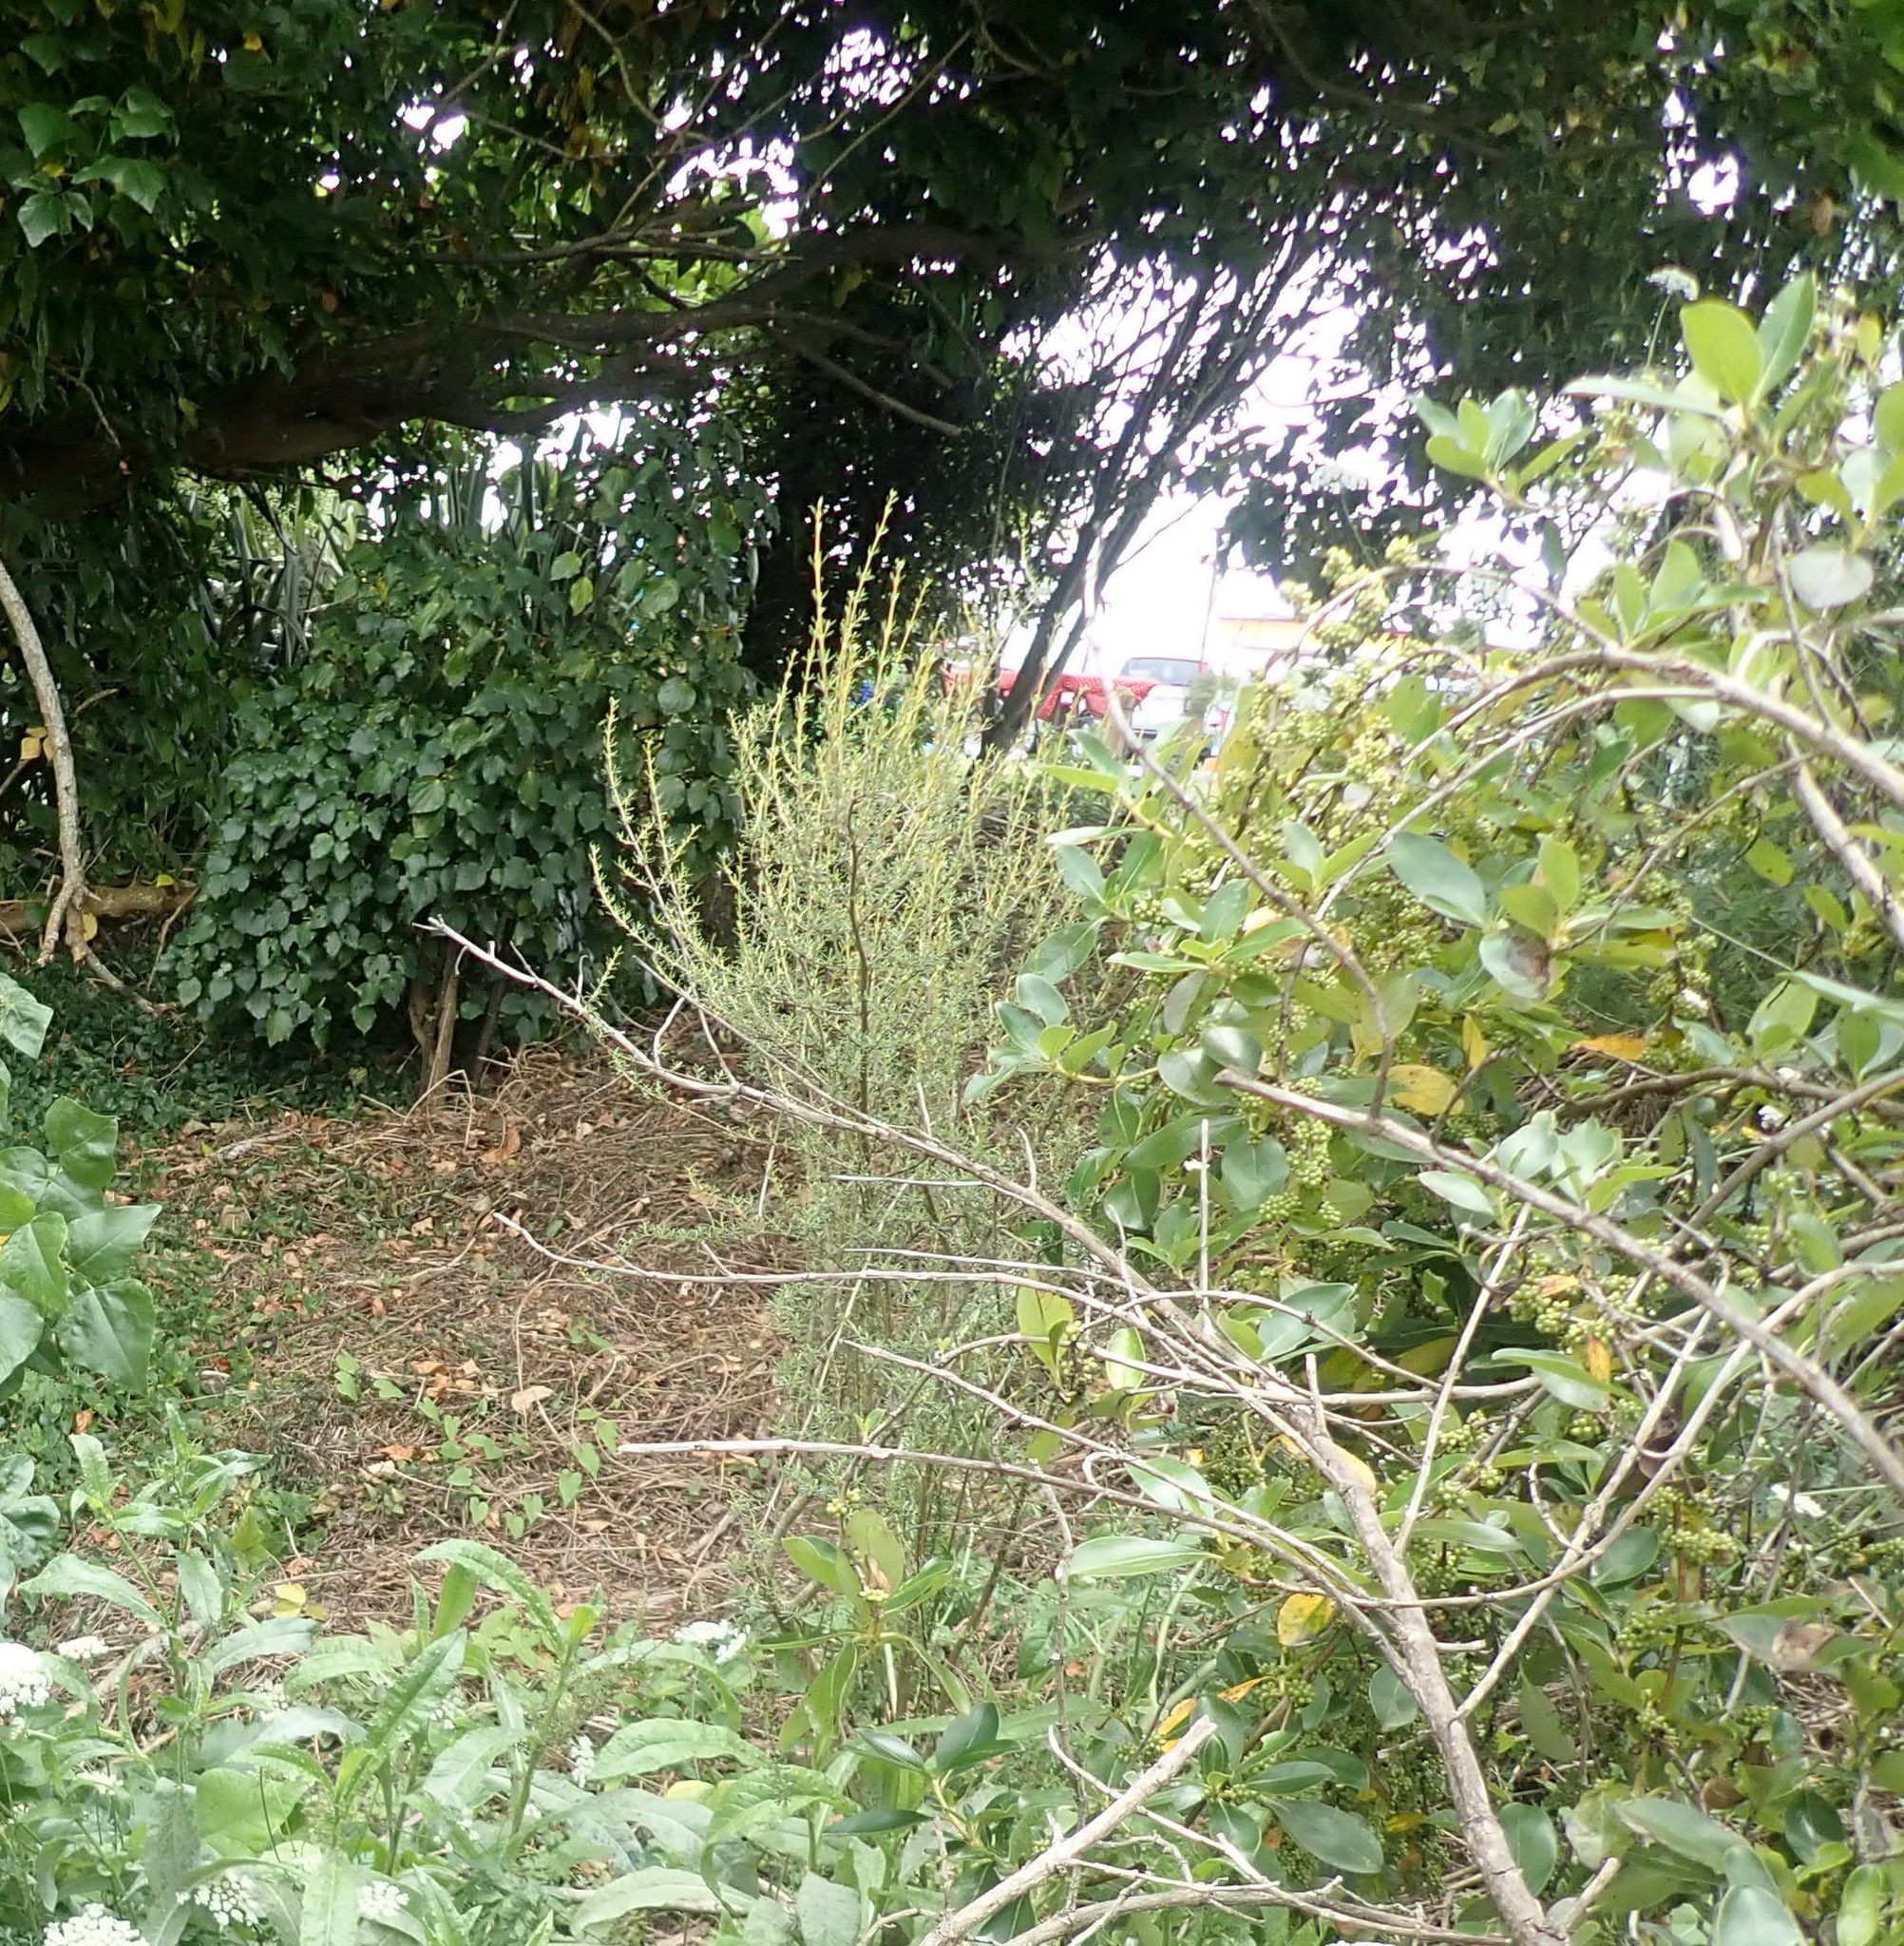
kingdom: Plantae
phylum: Tracheophyta
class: Magnoliopsida
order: Piperales
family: Piperaceae
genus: Macropiper
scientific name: Macropiper excelsum
